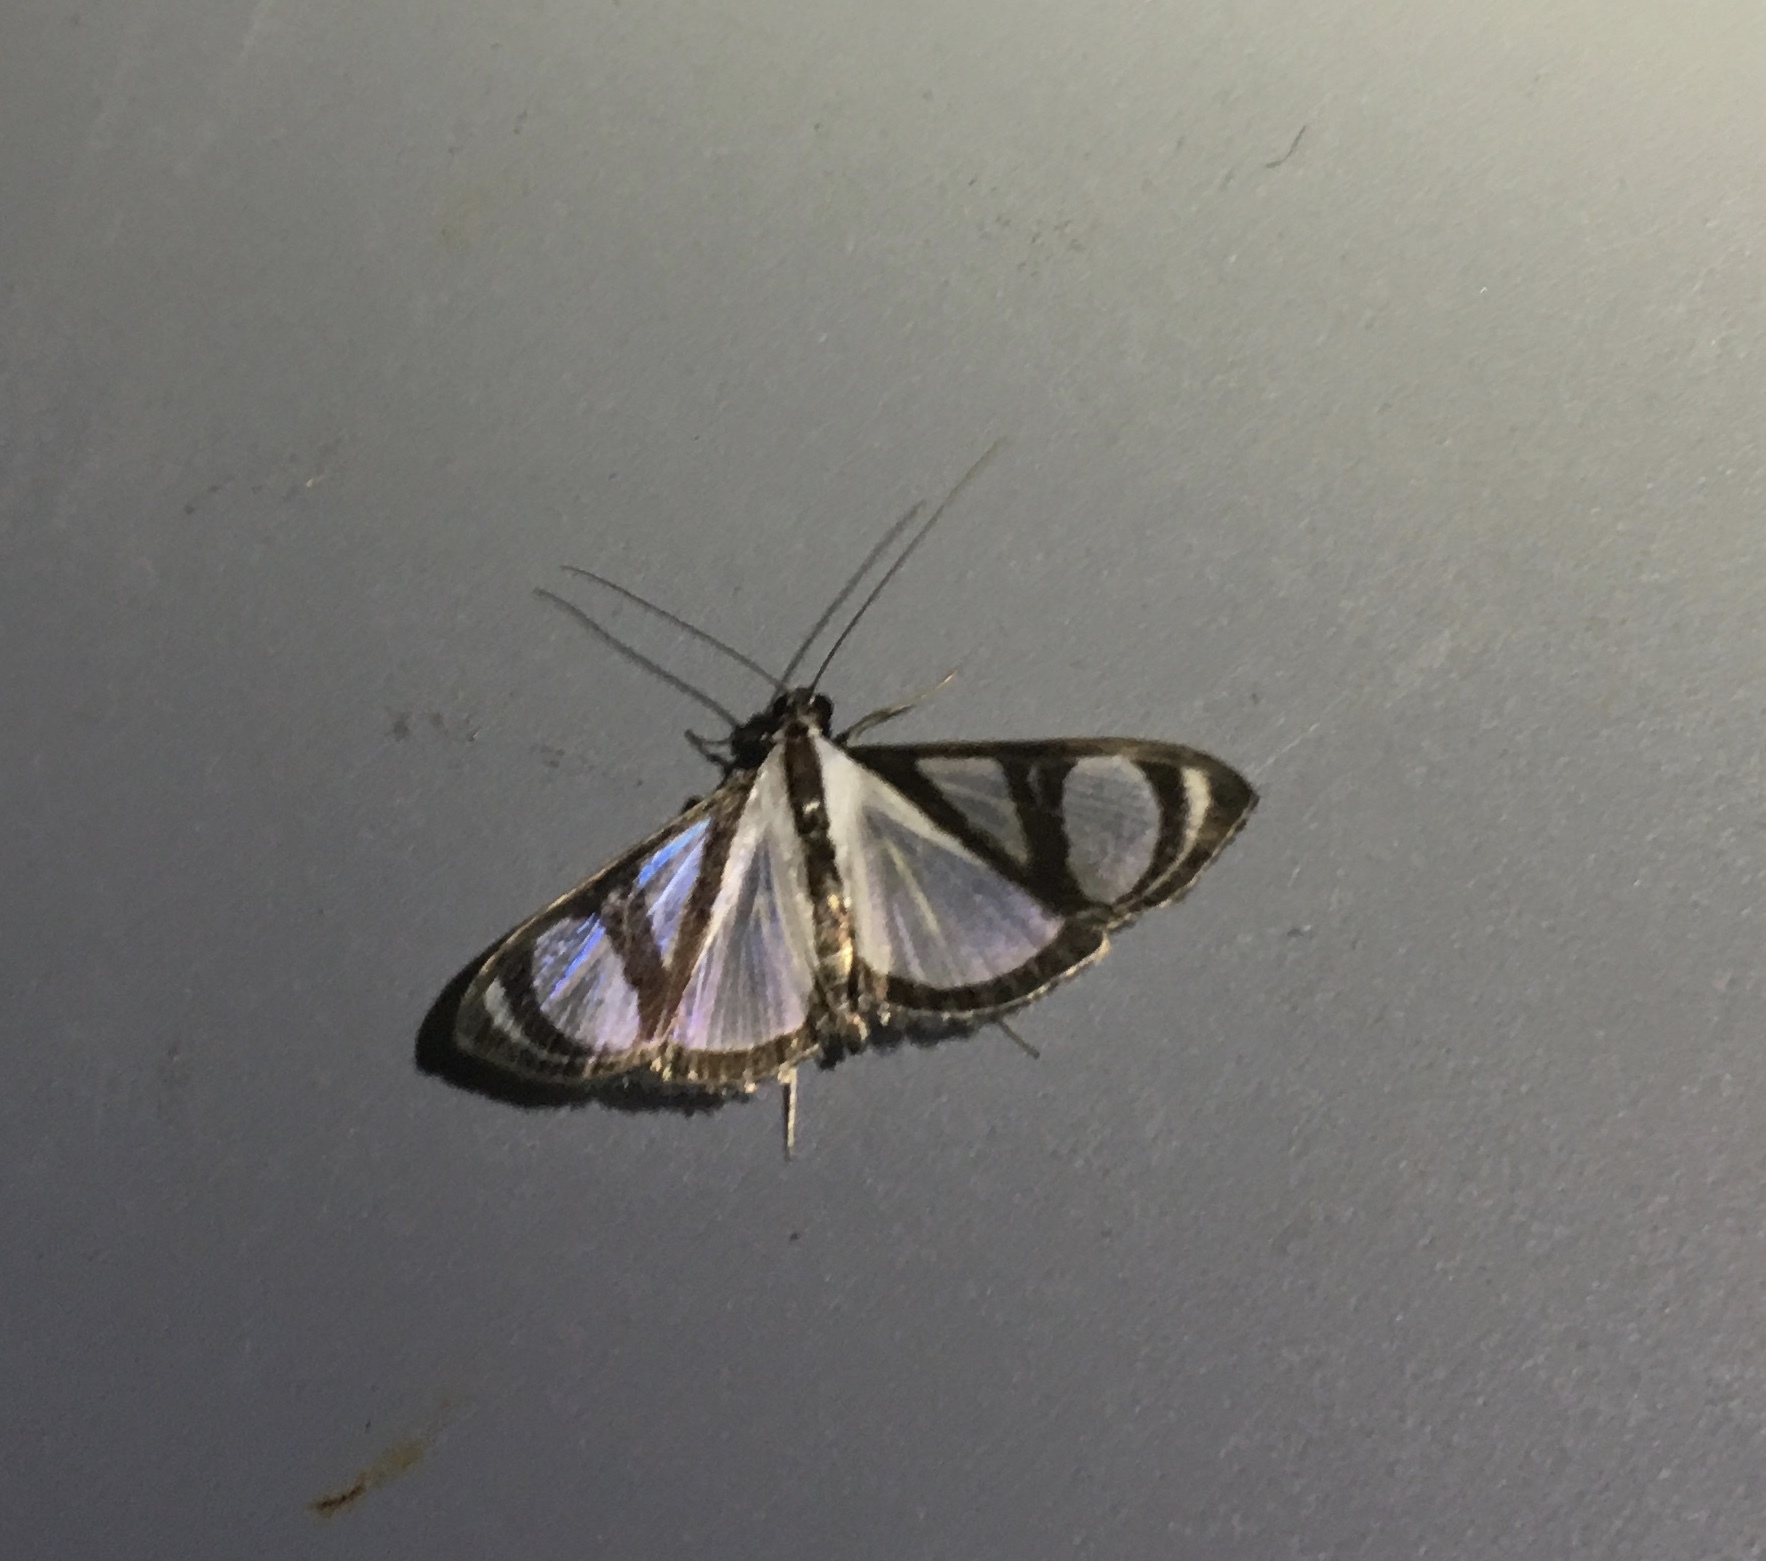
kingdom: Animalia
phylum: Arthropoda
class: Insecta
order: Lepidoptera
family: Crambidae
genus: Glyphodes
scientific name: Glyphodes confinis
